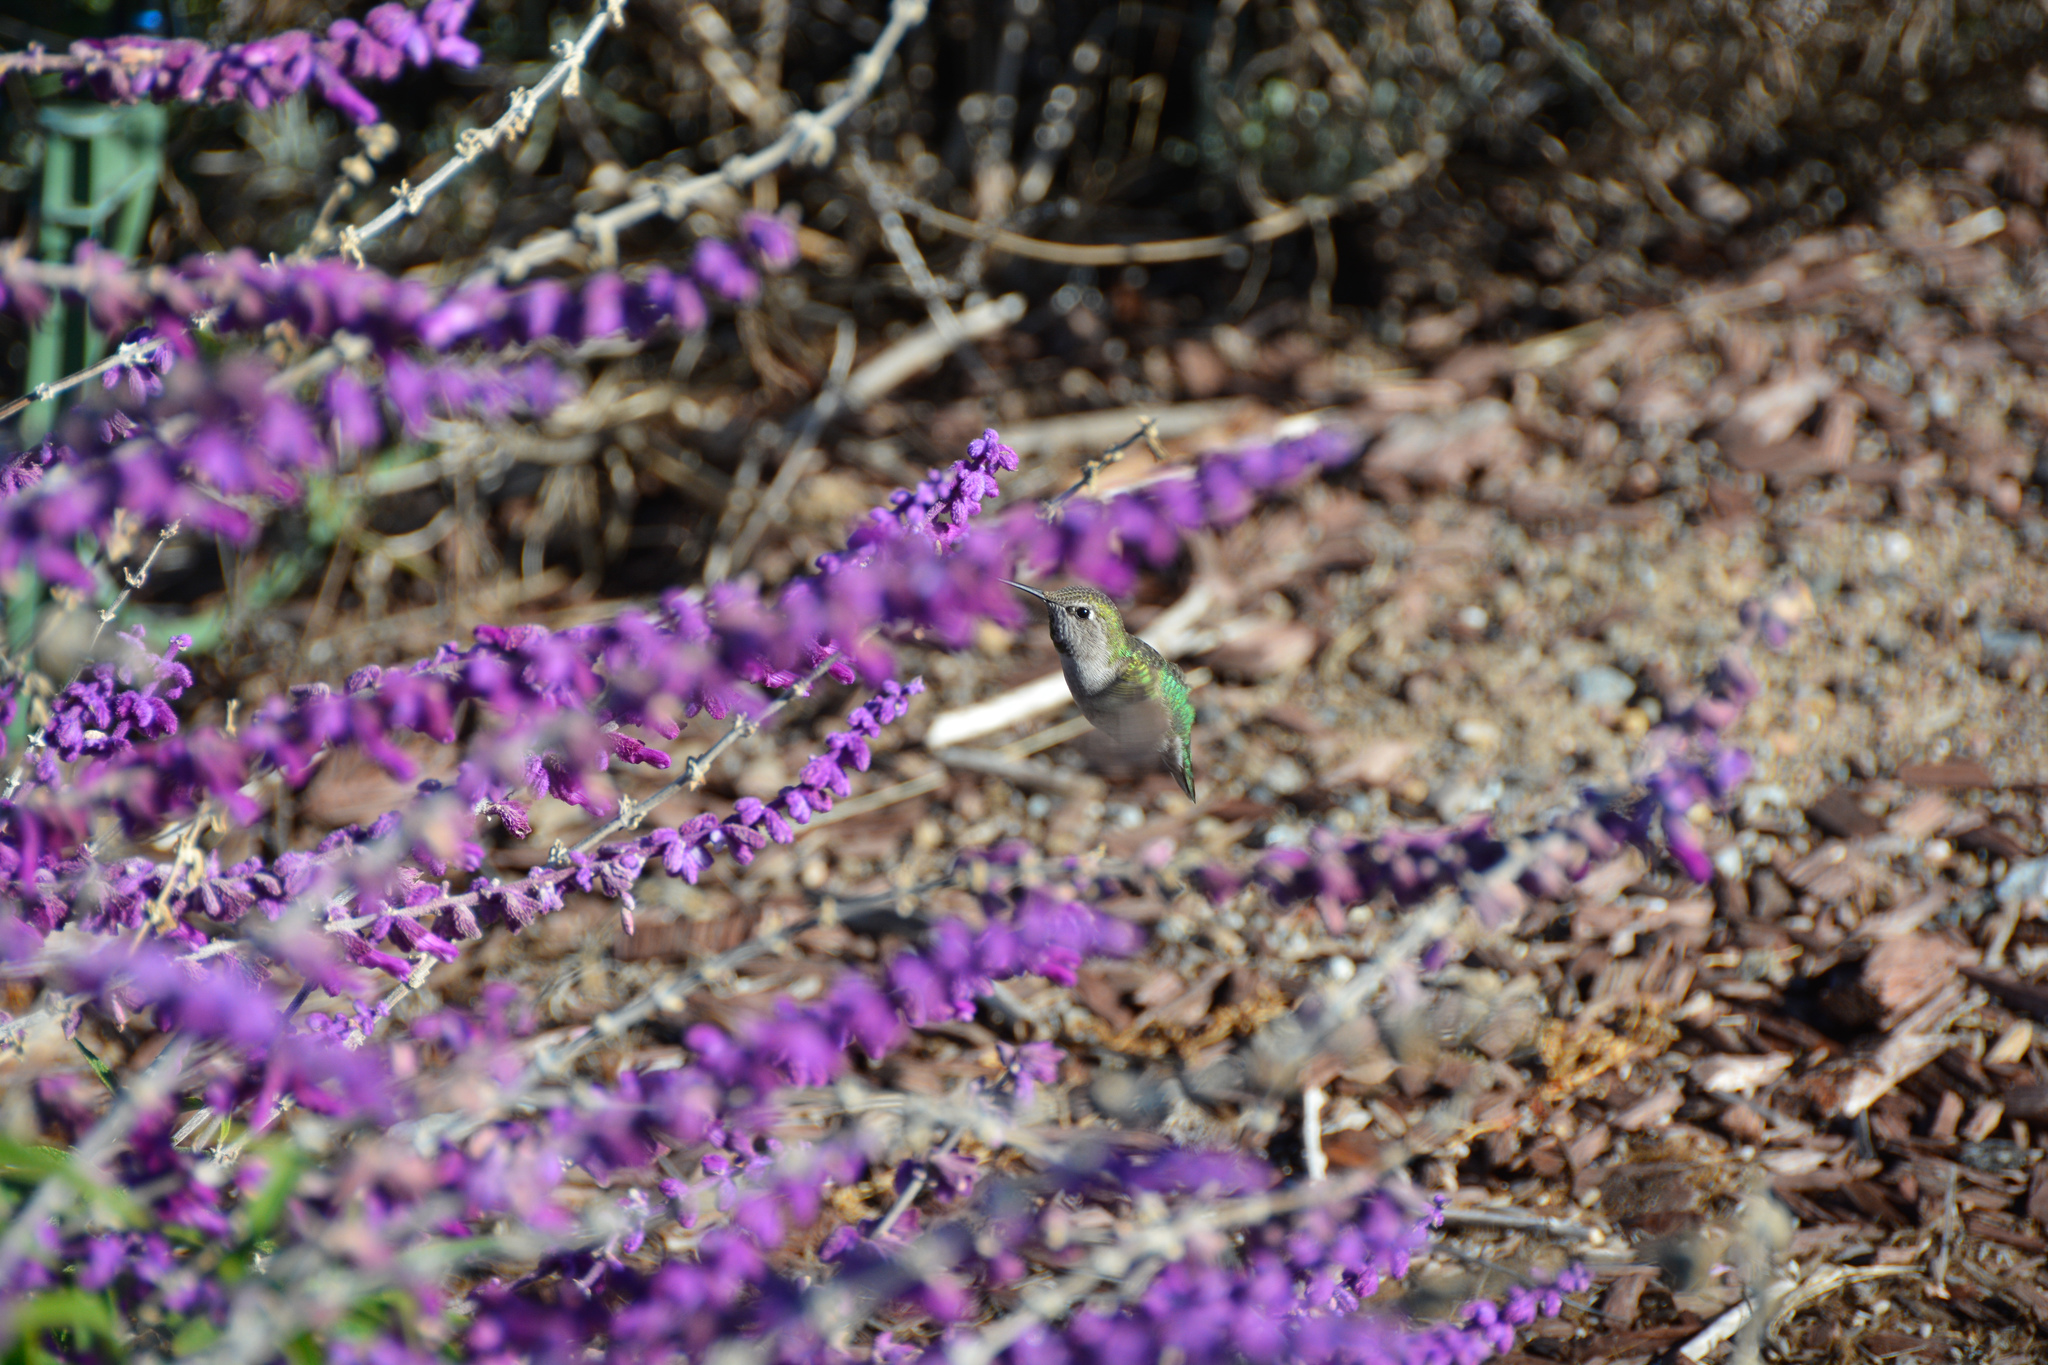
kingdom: Animalia
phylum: Chordata
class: Aves
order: Apodiformes
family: Trochilidae
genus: Calypte
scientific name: Calypte anna
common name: Anna's hummingbird
